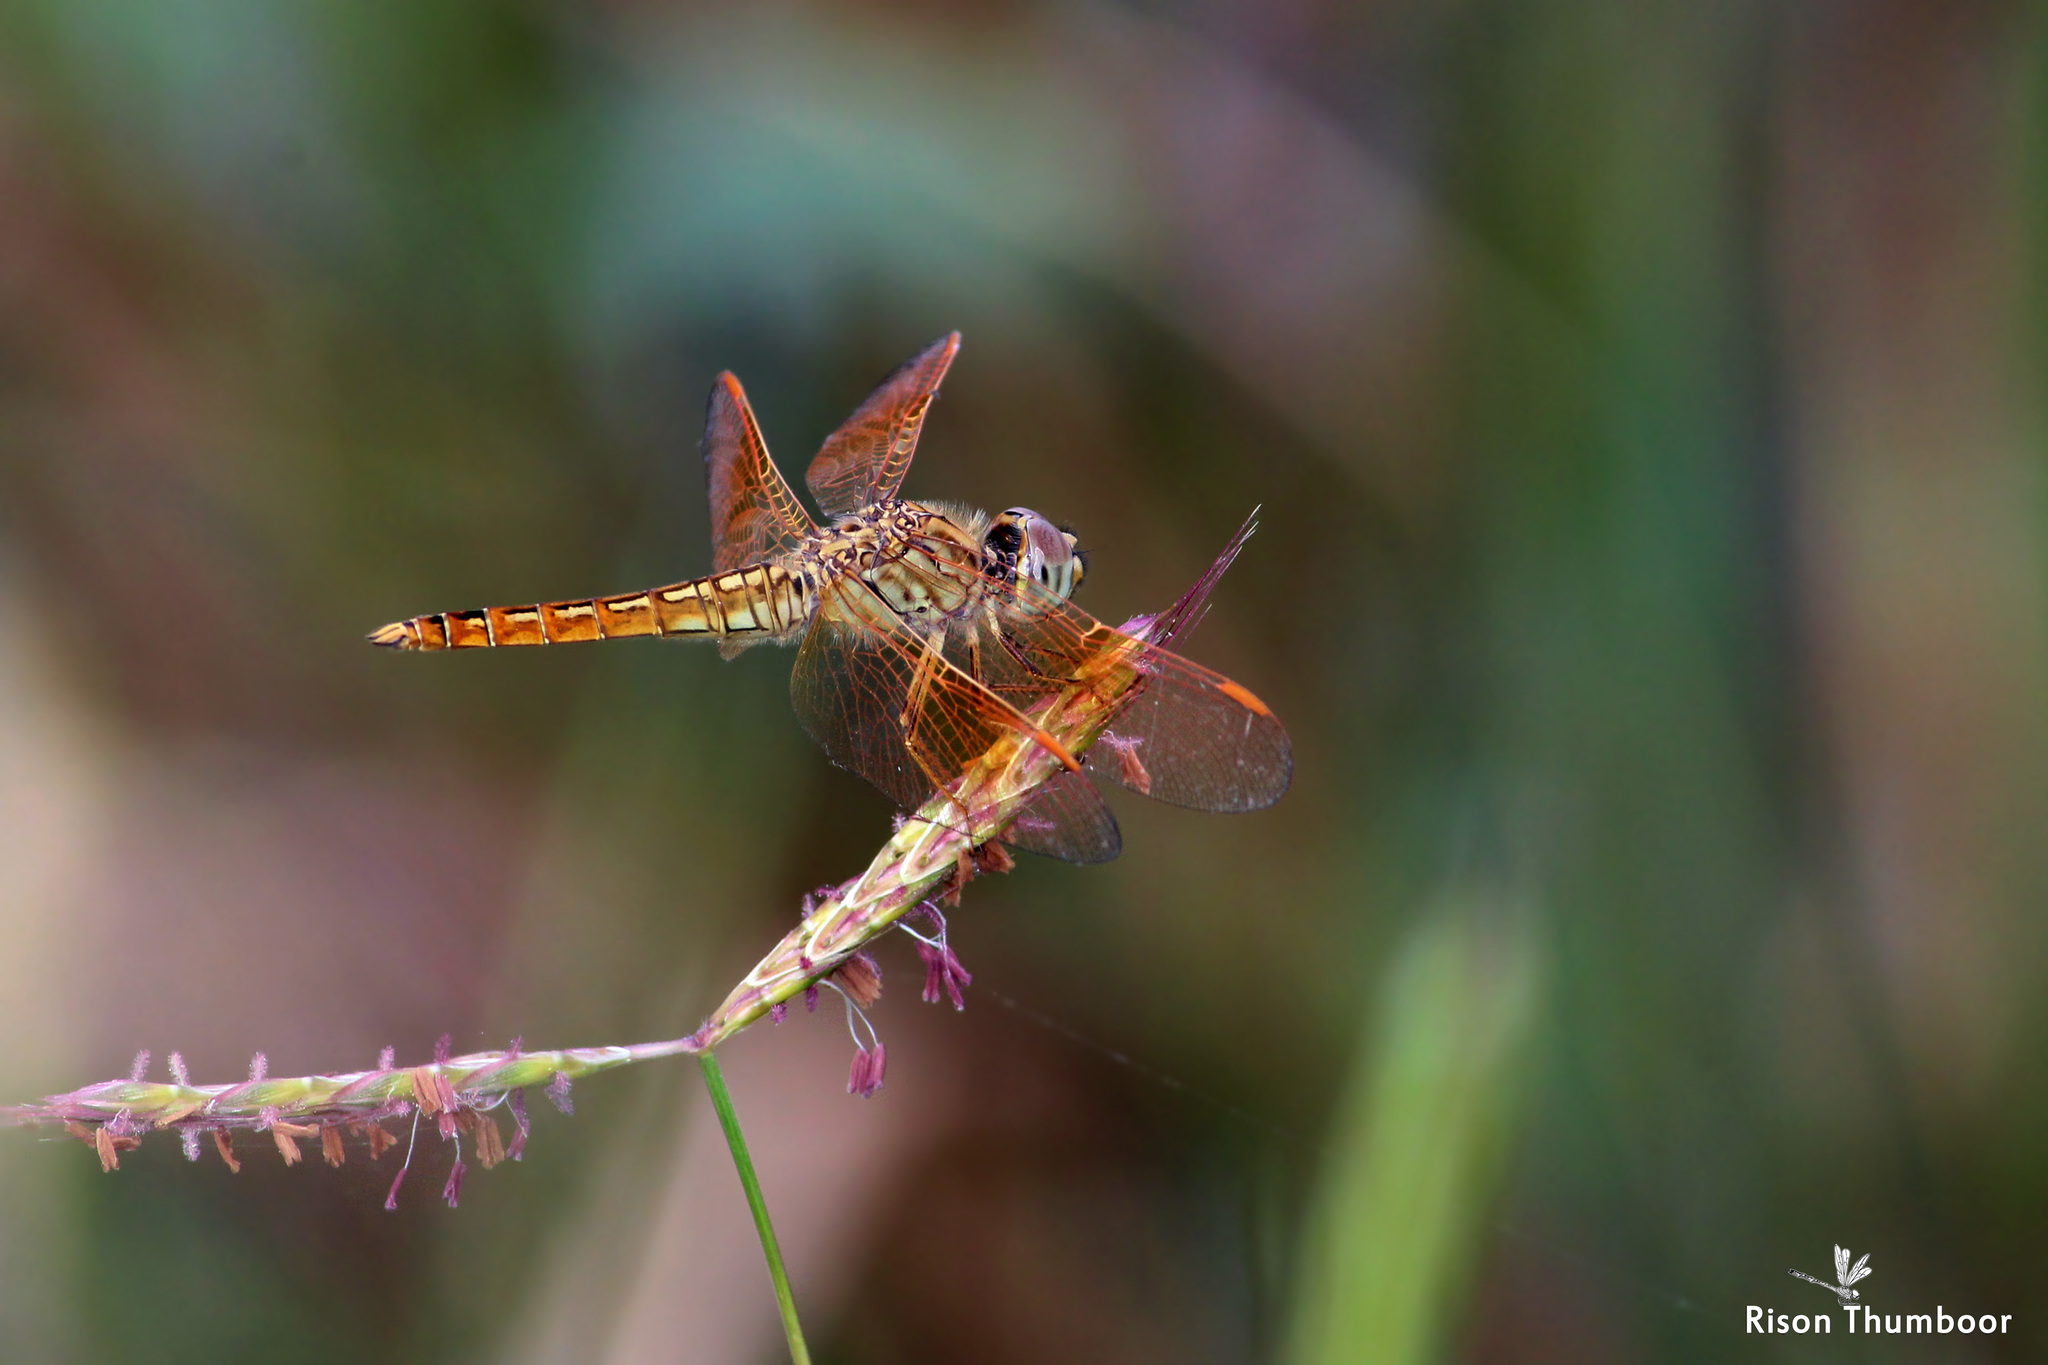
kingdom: Animalia
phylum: Arthropoda
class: Insecta
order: Odonata
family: Libellulidae
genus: Brachythemis
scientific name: Brachythemis contaminata
